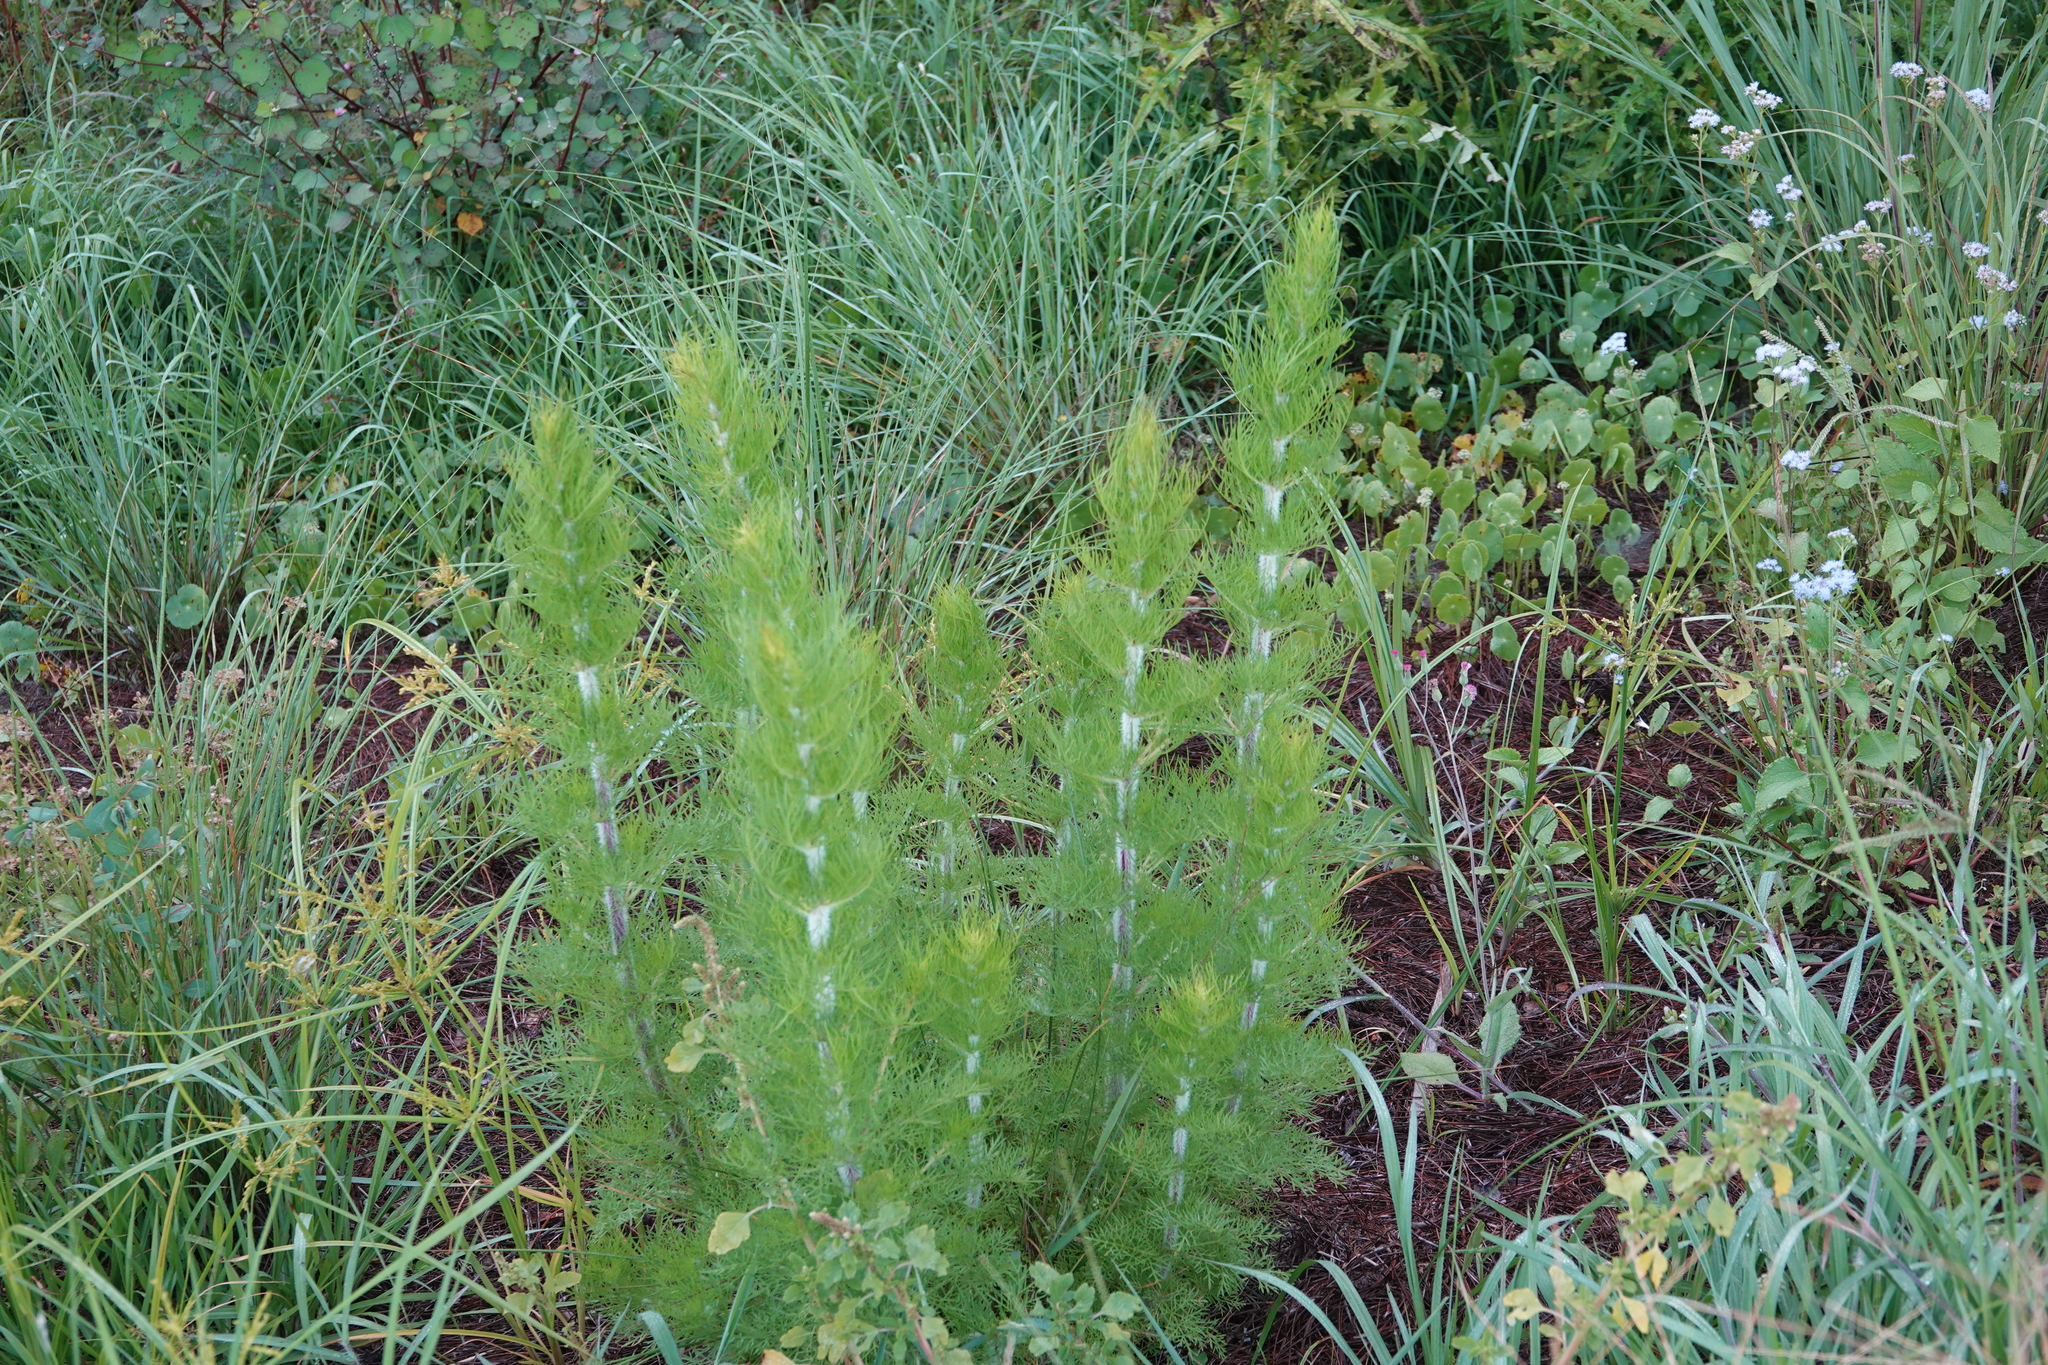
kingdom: Plantae
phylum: Tracheophyta
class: Magnoliopsida
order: Asterales
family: Asteraceae
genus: Eupatorium
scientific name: Eupatorium capillifolium
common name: Dog-fennel
